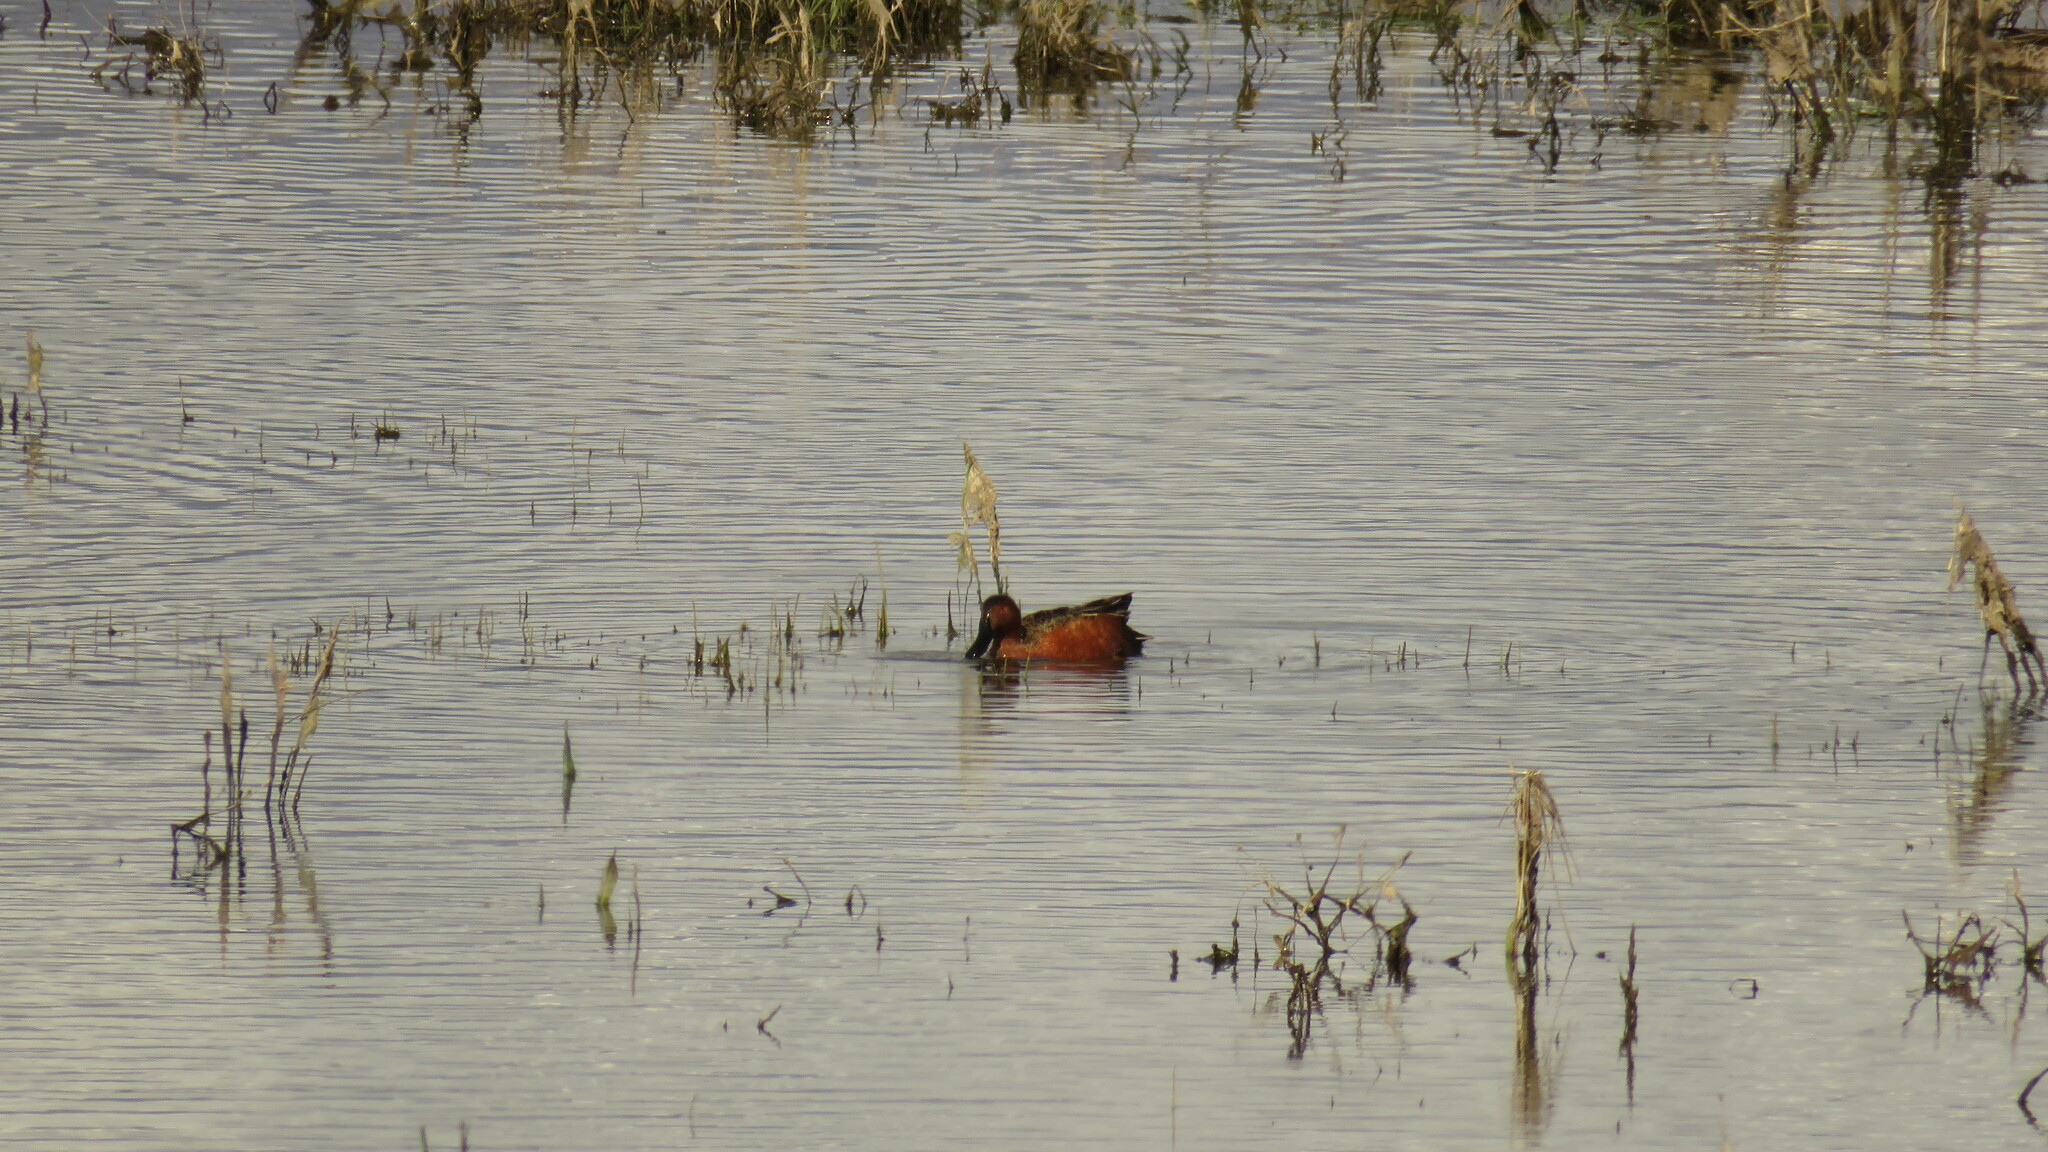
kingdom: Animalia
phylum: Chordata
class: Aves
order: Anseriformes
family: Anatidae
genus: Spatula
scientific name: Spatula cyanoptera
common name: Cinnamon teal
